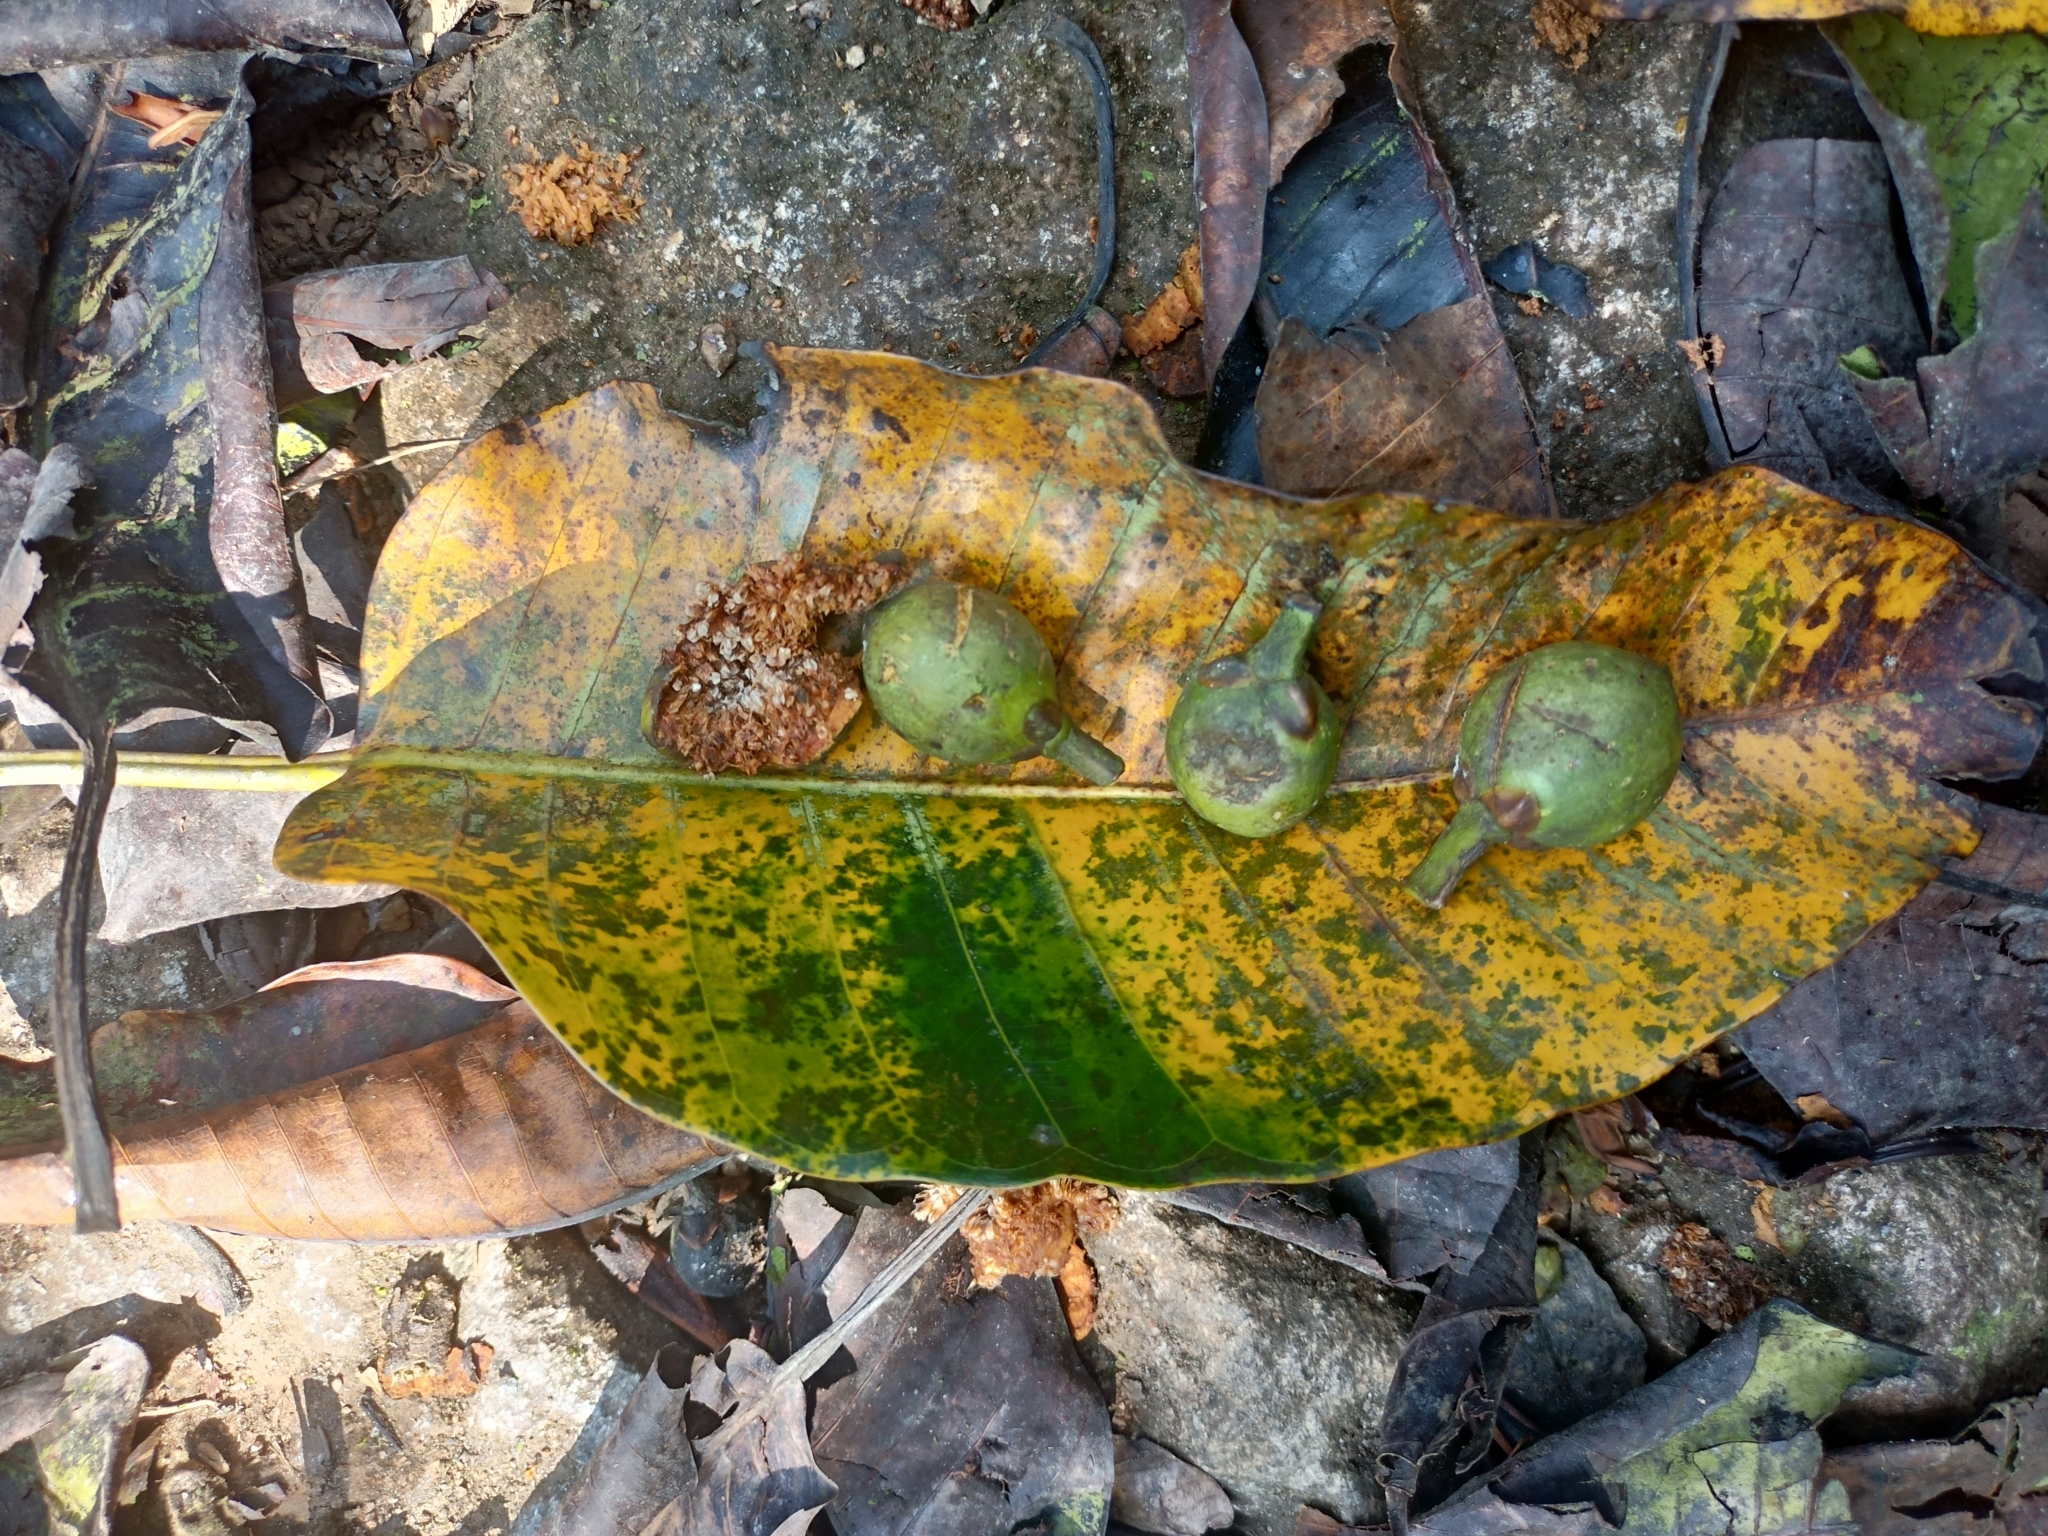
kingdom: Plantae
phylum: Tracheophyta
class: Magnoliopsida
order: Rosales
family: Moraceae
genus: Ficus
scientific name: Ficus beddomei
